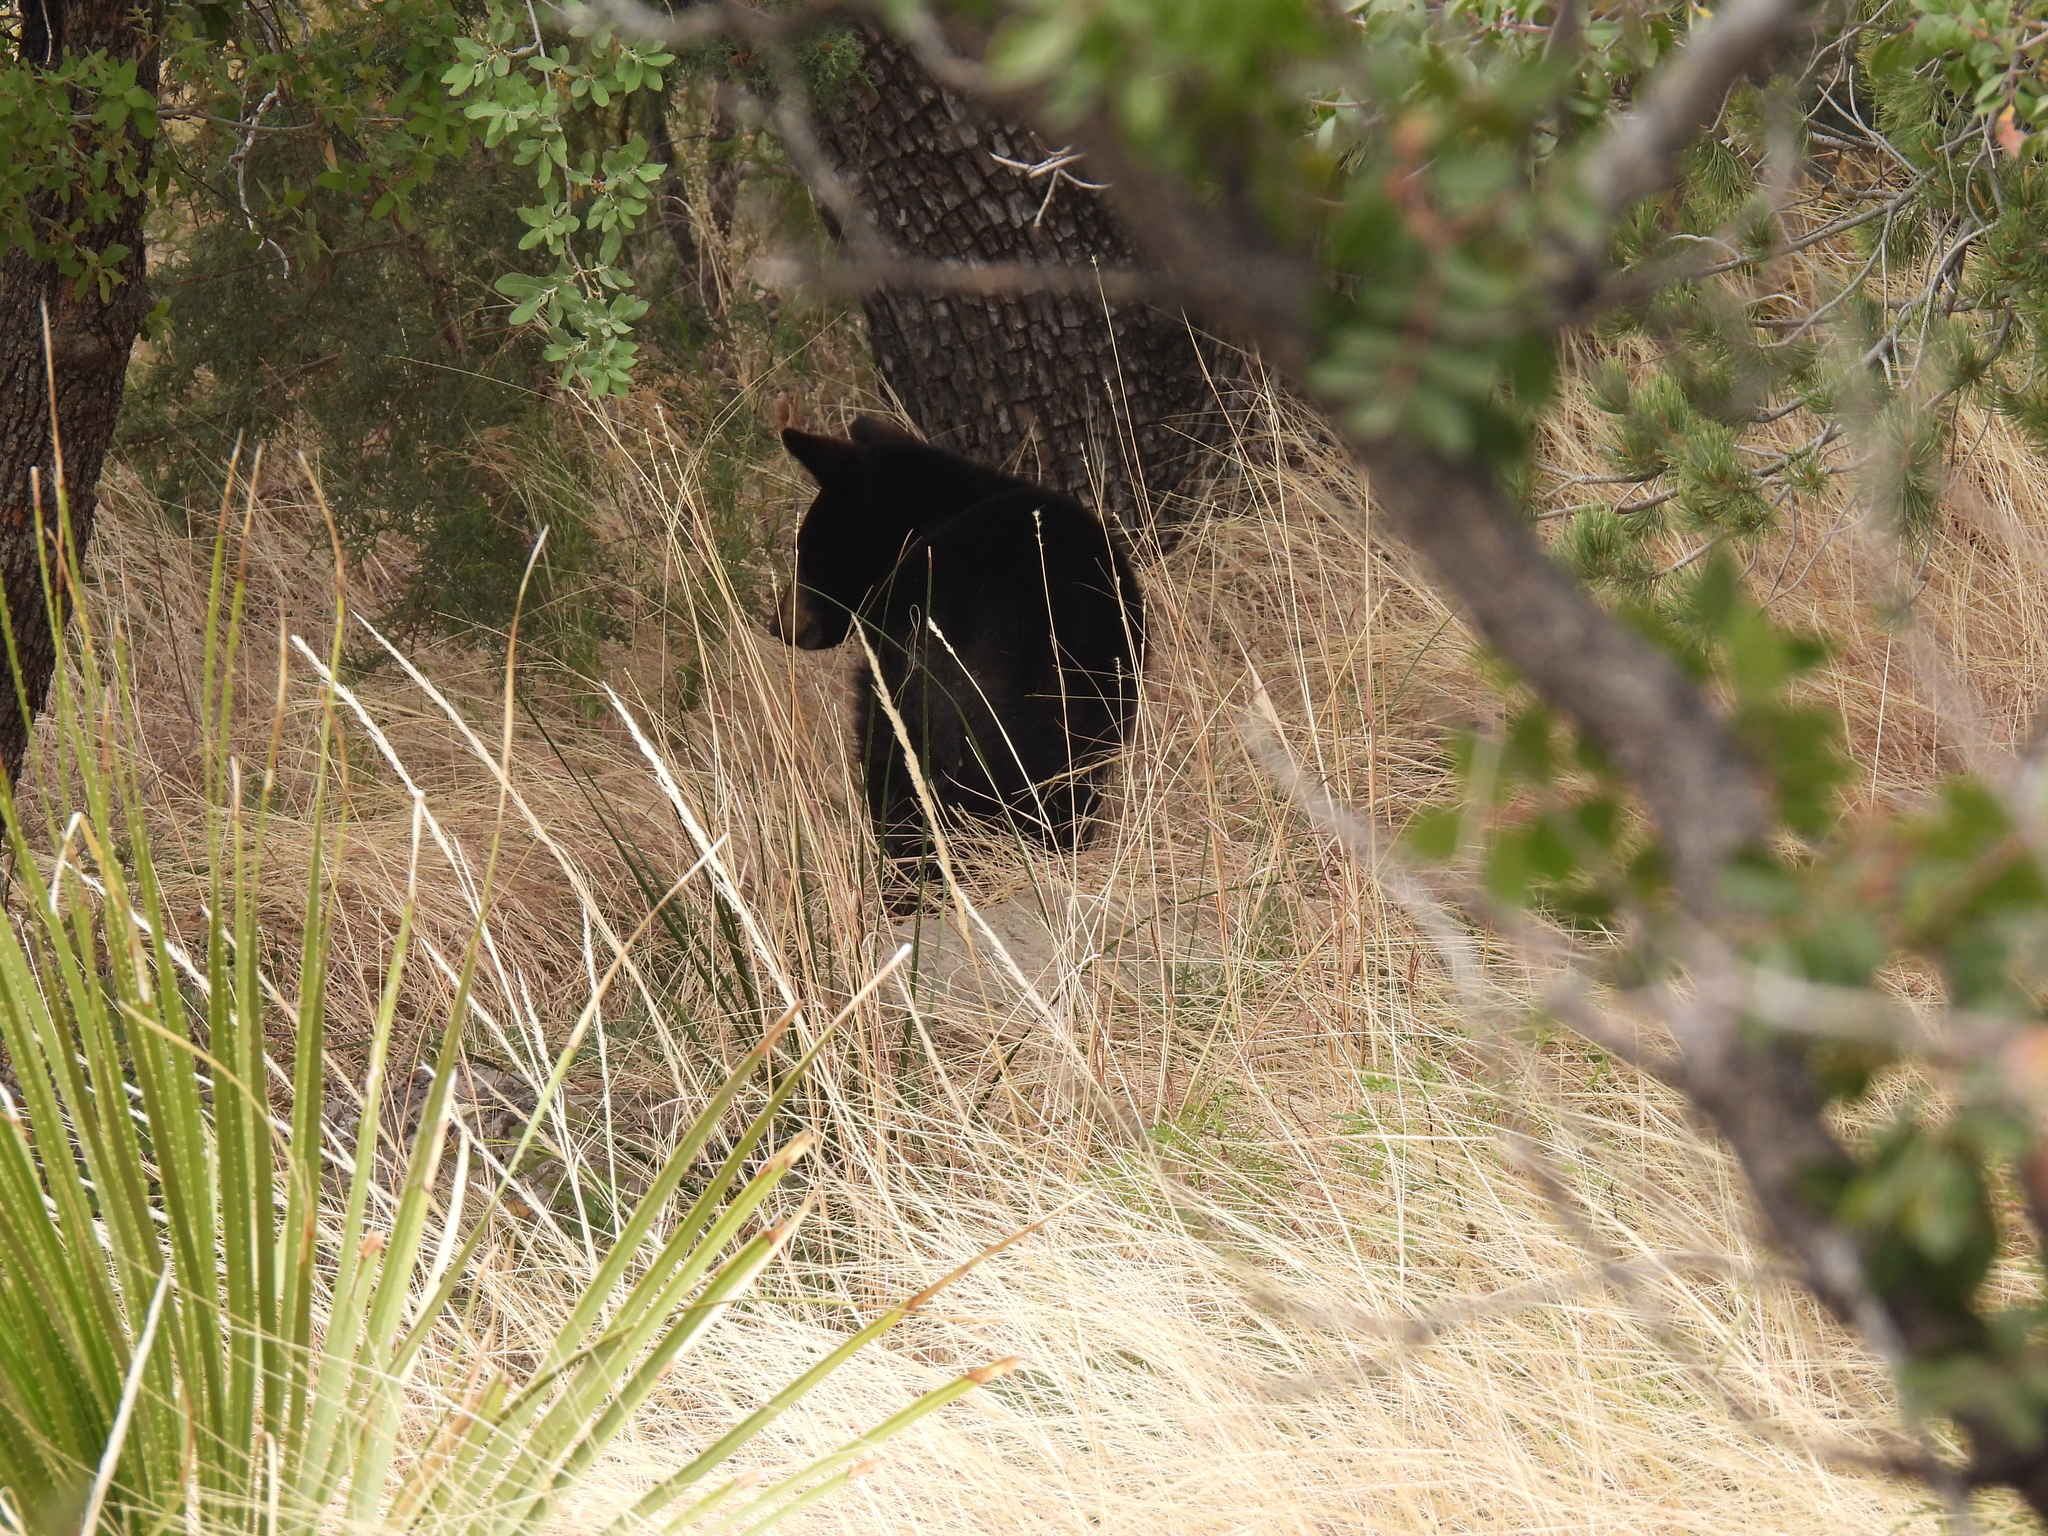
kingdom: Animalia
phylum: Chordata
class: Mammalia
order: Carnivora
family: Ursidae
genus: Ursus
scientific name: Ursus americanus
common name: American black bear
